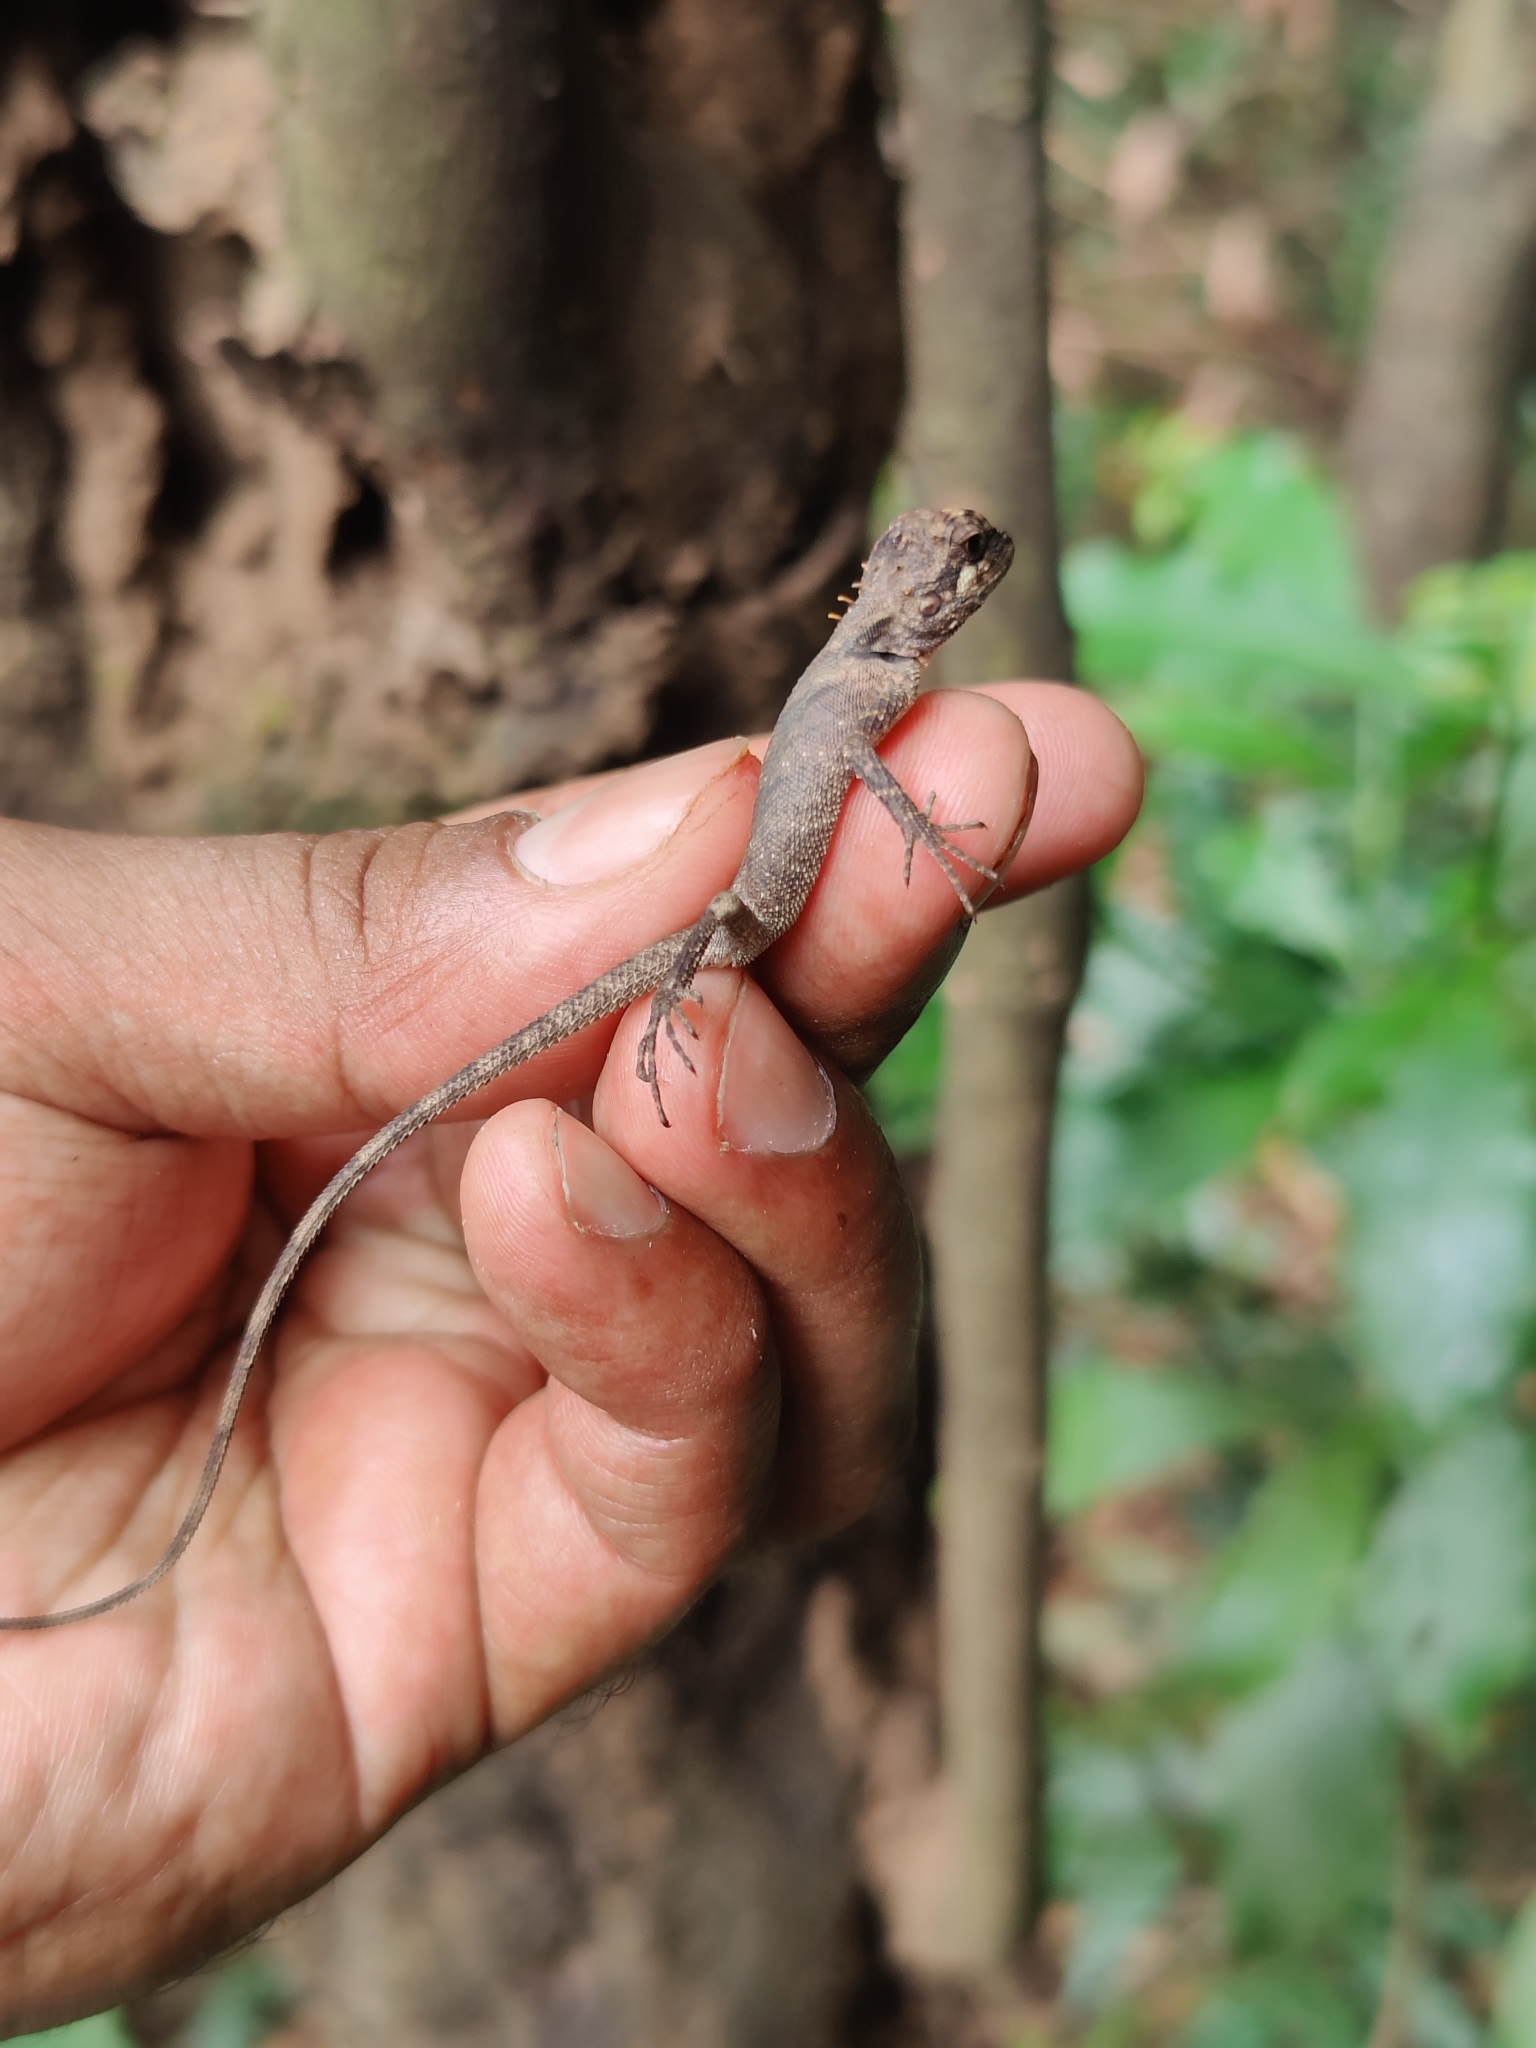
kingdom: Animalia
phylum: Chordata
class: Squamata
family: Agamidae
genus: Monilesaurus
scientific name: Monilesaurus ellioti
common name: Elliot's forest lizard
